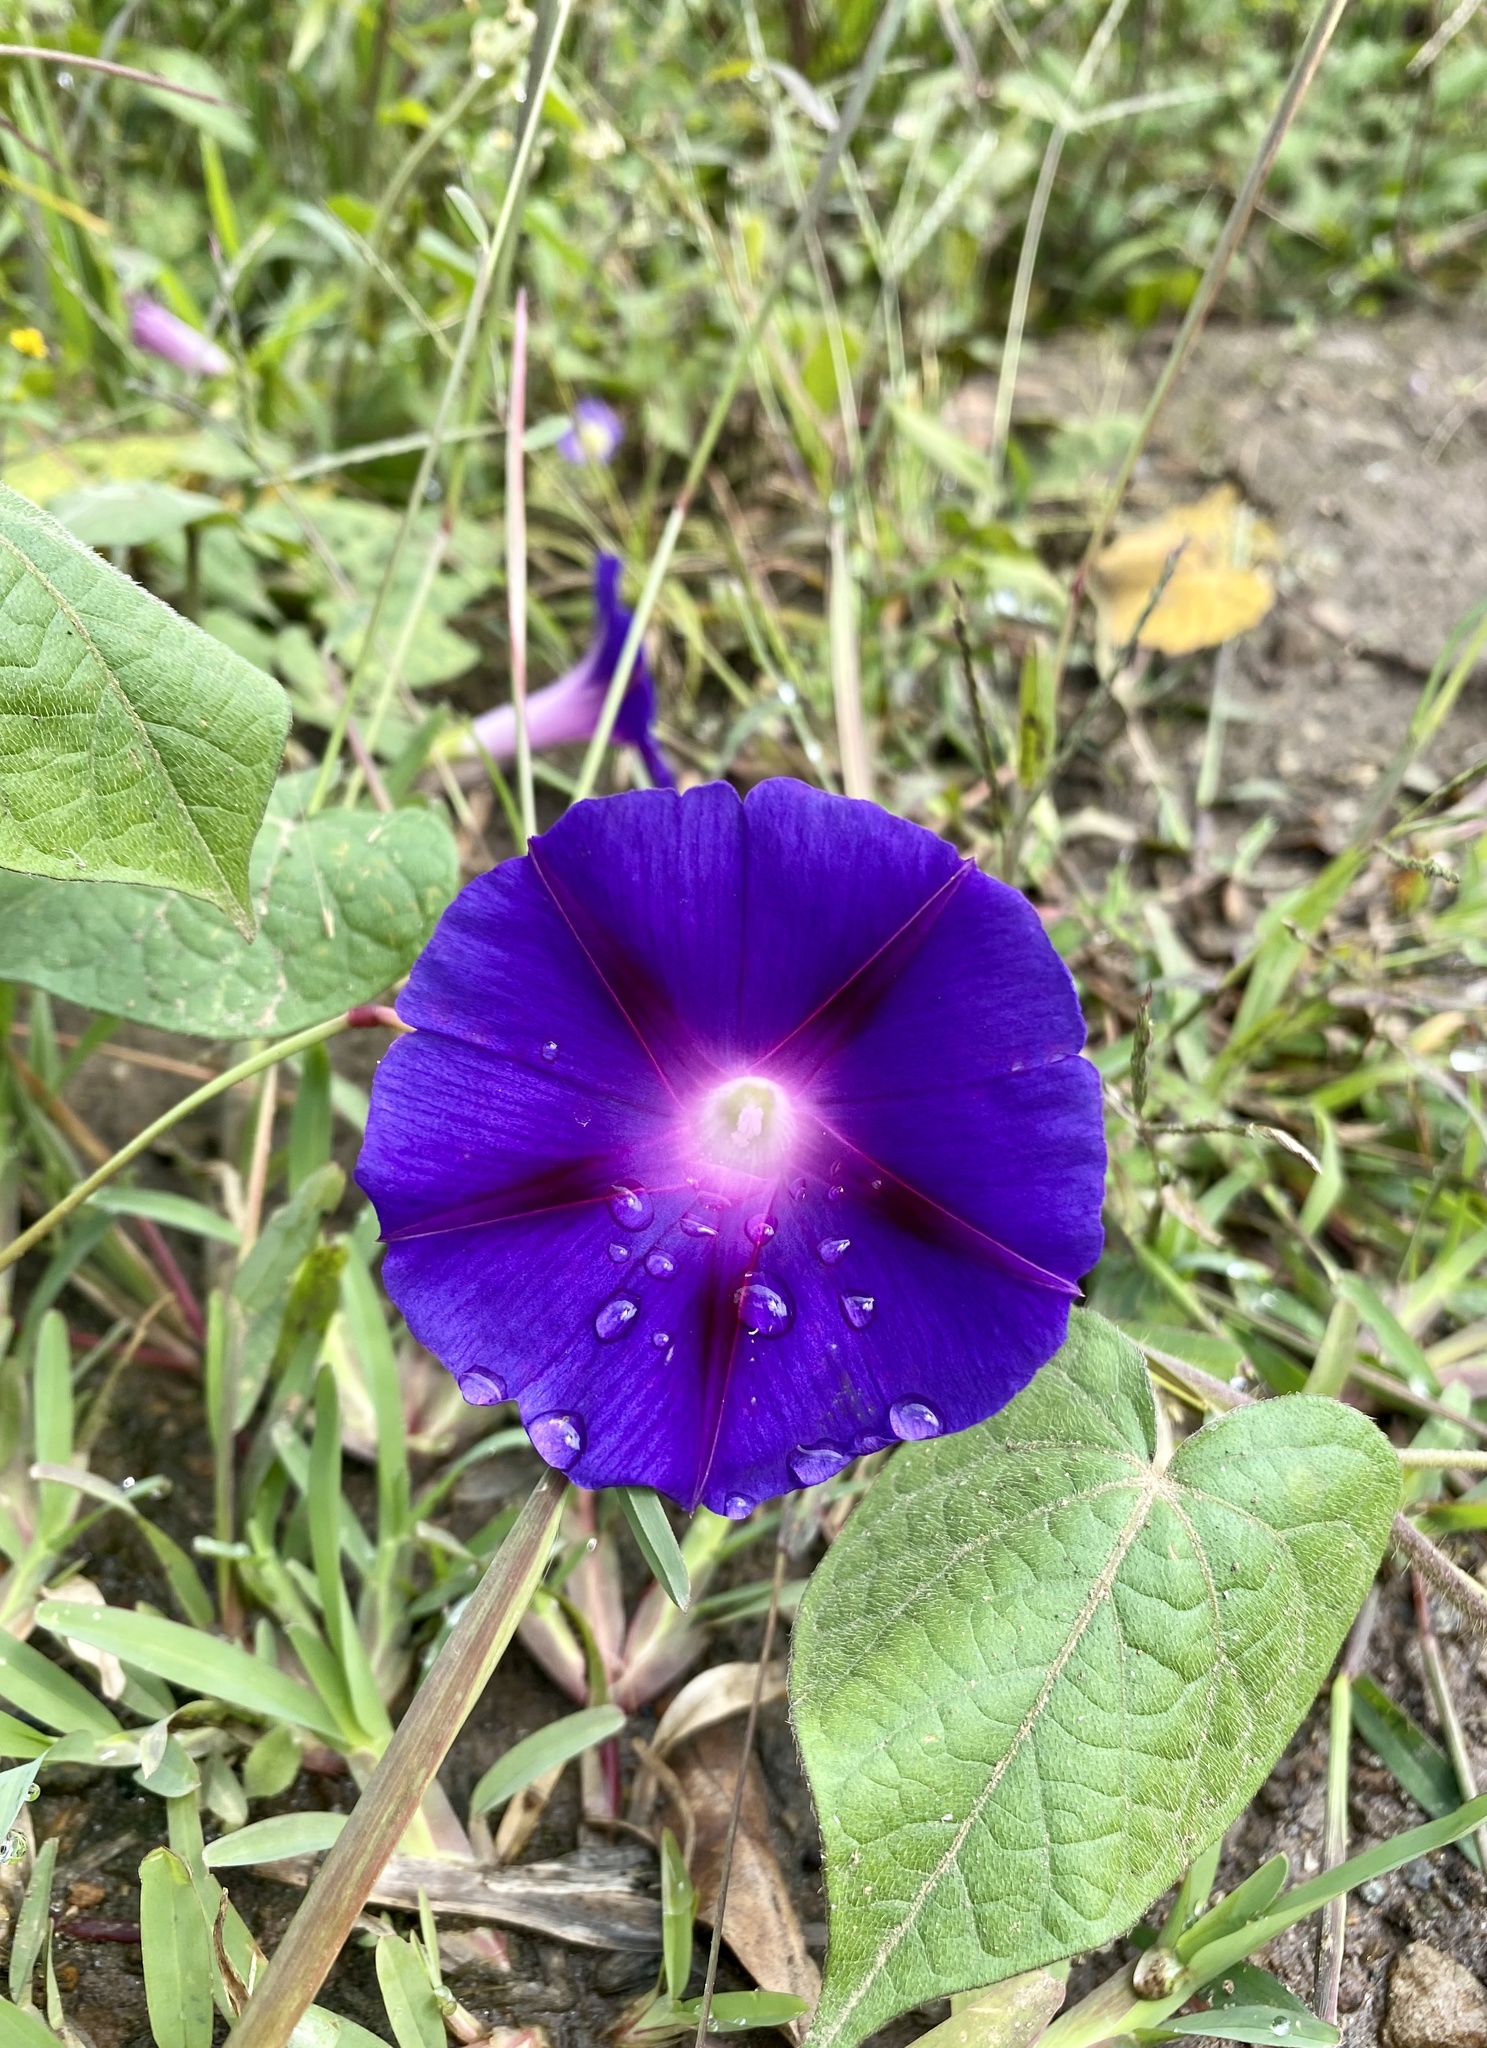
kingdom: Plantae
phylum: Tracheophyta
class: Magnoliopsida
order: Solanales
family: Convolvulaceae
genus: Ipomoea
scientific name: Ipomoea purpurea
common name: Common morning-glory
